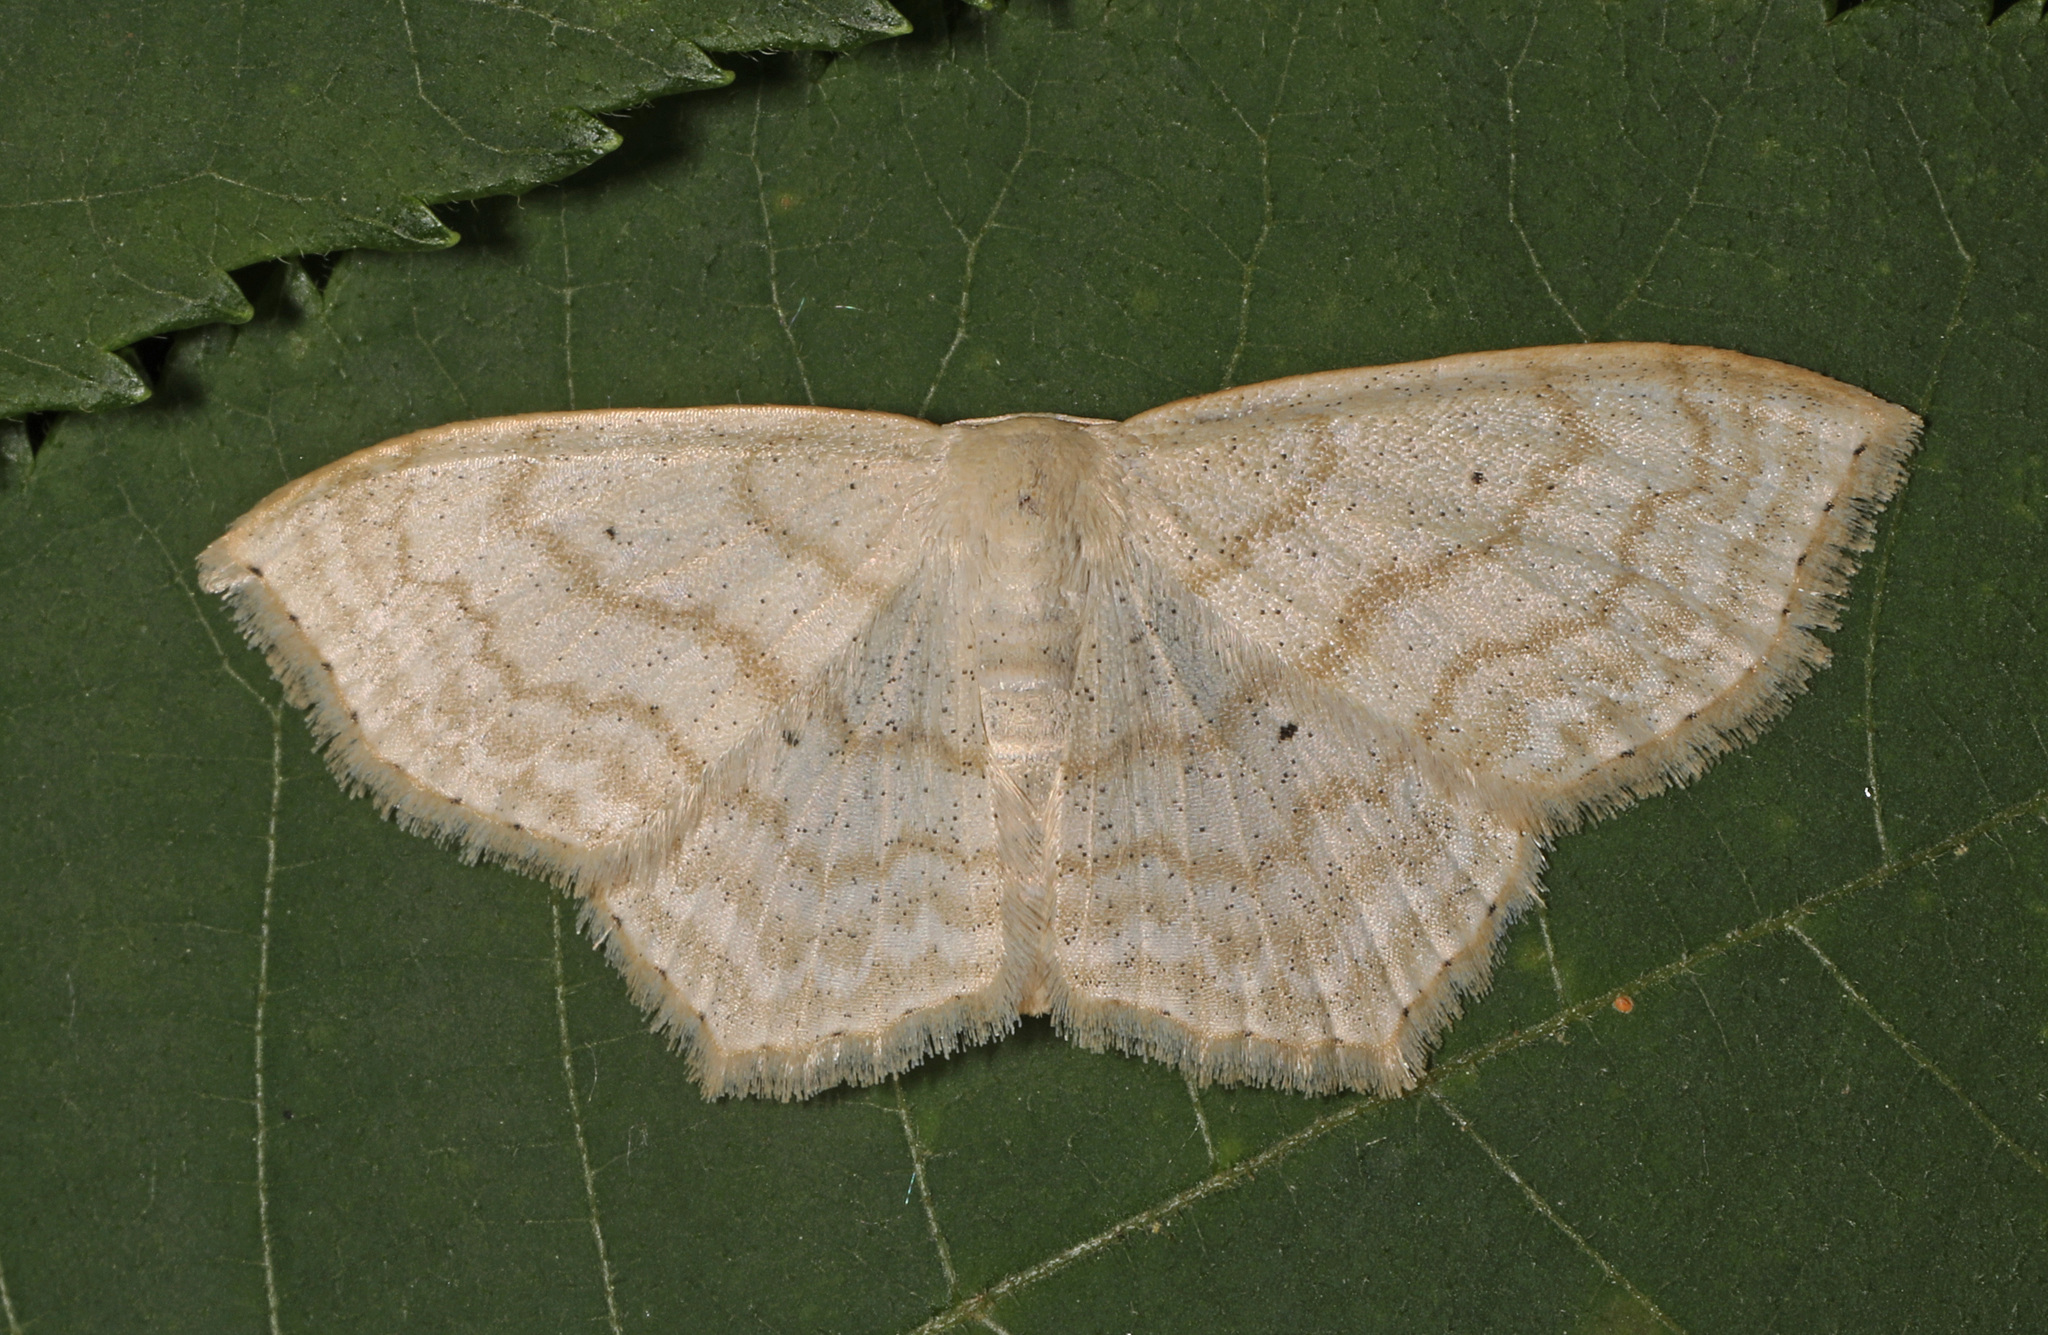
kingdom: Animalia
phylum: Arthropoda
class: Insecta
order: Lepidoptera
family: Geometridae
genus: Scopula
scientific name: Scopula limboundata
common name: Large lace border
